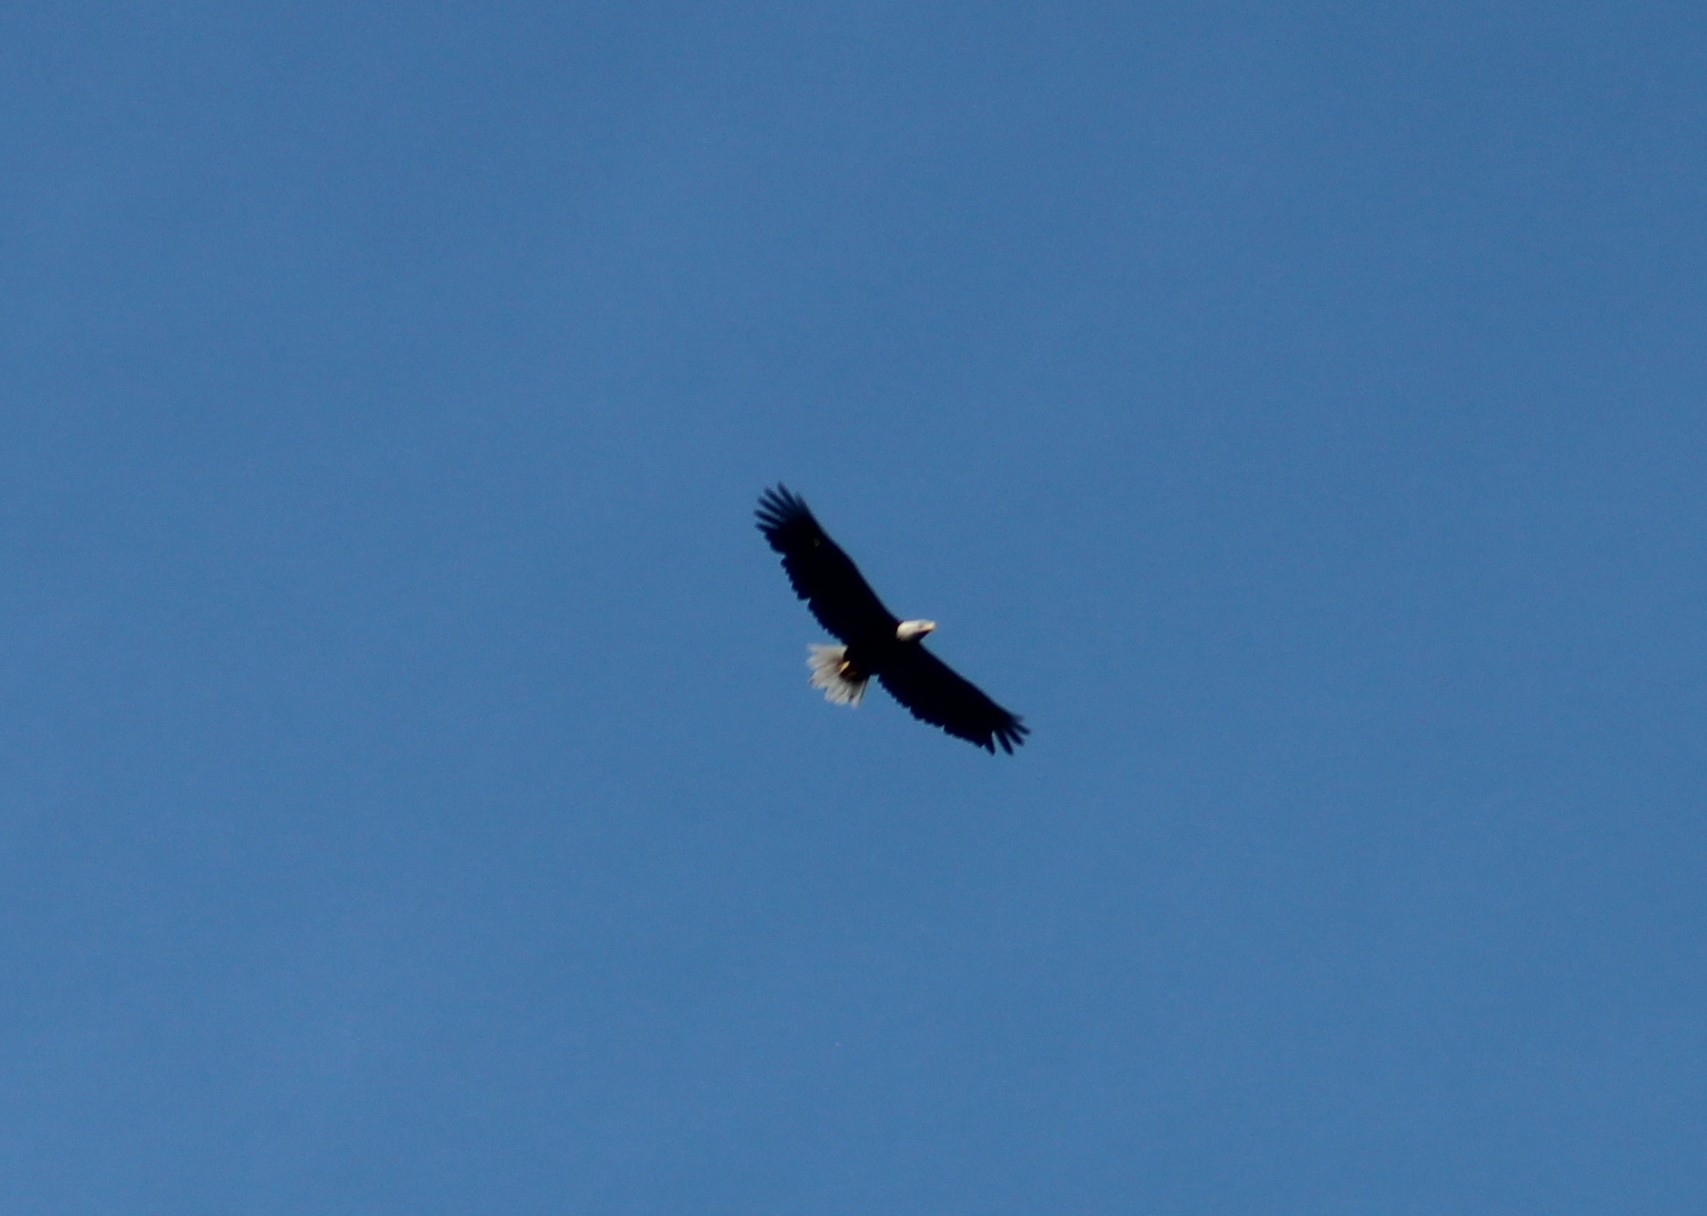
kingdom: Animalia
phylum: Chordata
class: Aves
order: Accipitriformes
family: Accipitridae
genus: Haliaeetus
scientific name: Haliaeetus leucocephalus
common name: Bald eagle
